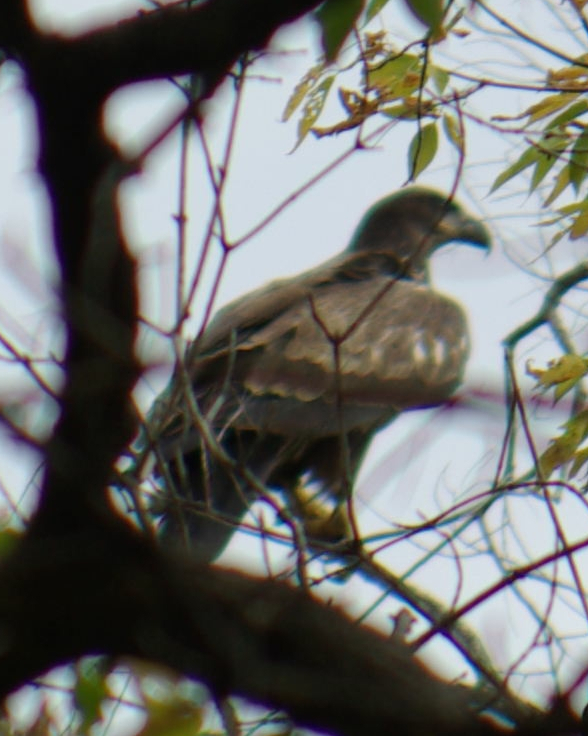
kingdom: Animalia
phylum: Chordata
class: Aves
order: Accipitriformes
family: Accipitridae
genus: Haliaeetus
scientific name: Haliaeetus leucocephalus
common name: Bald eagle
